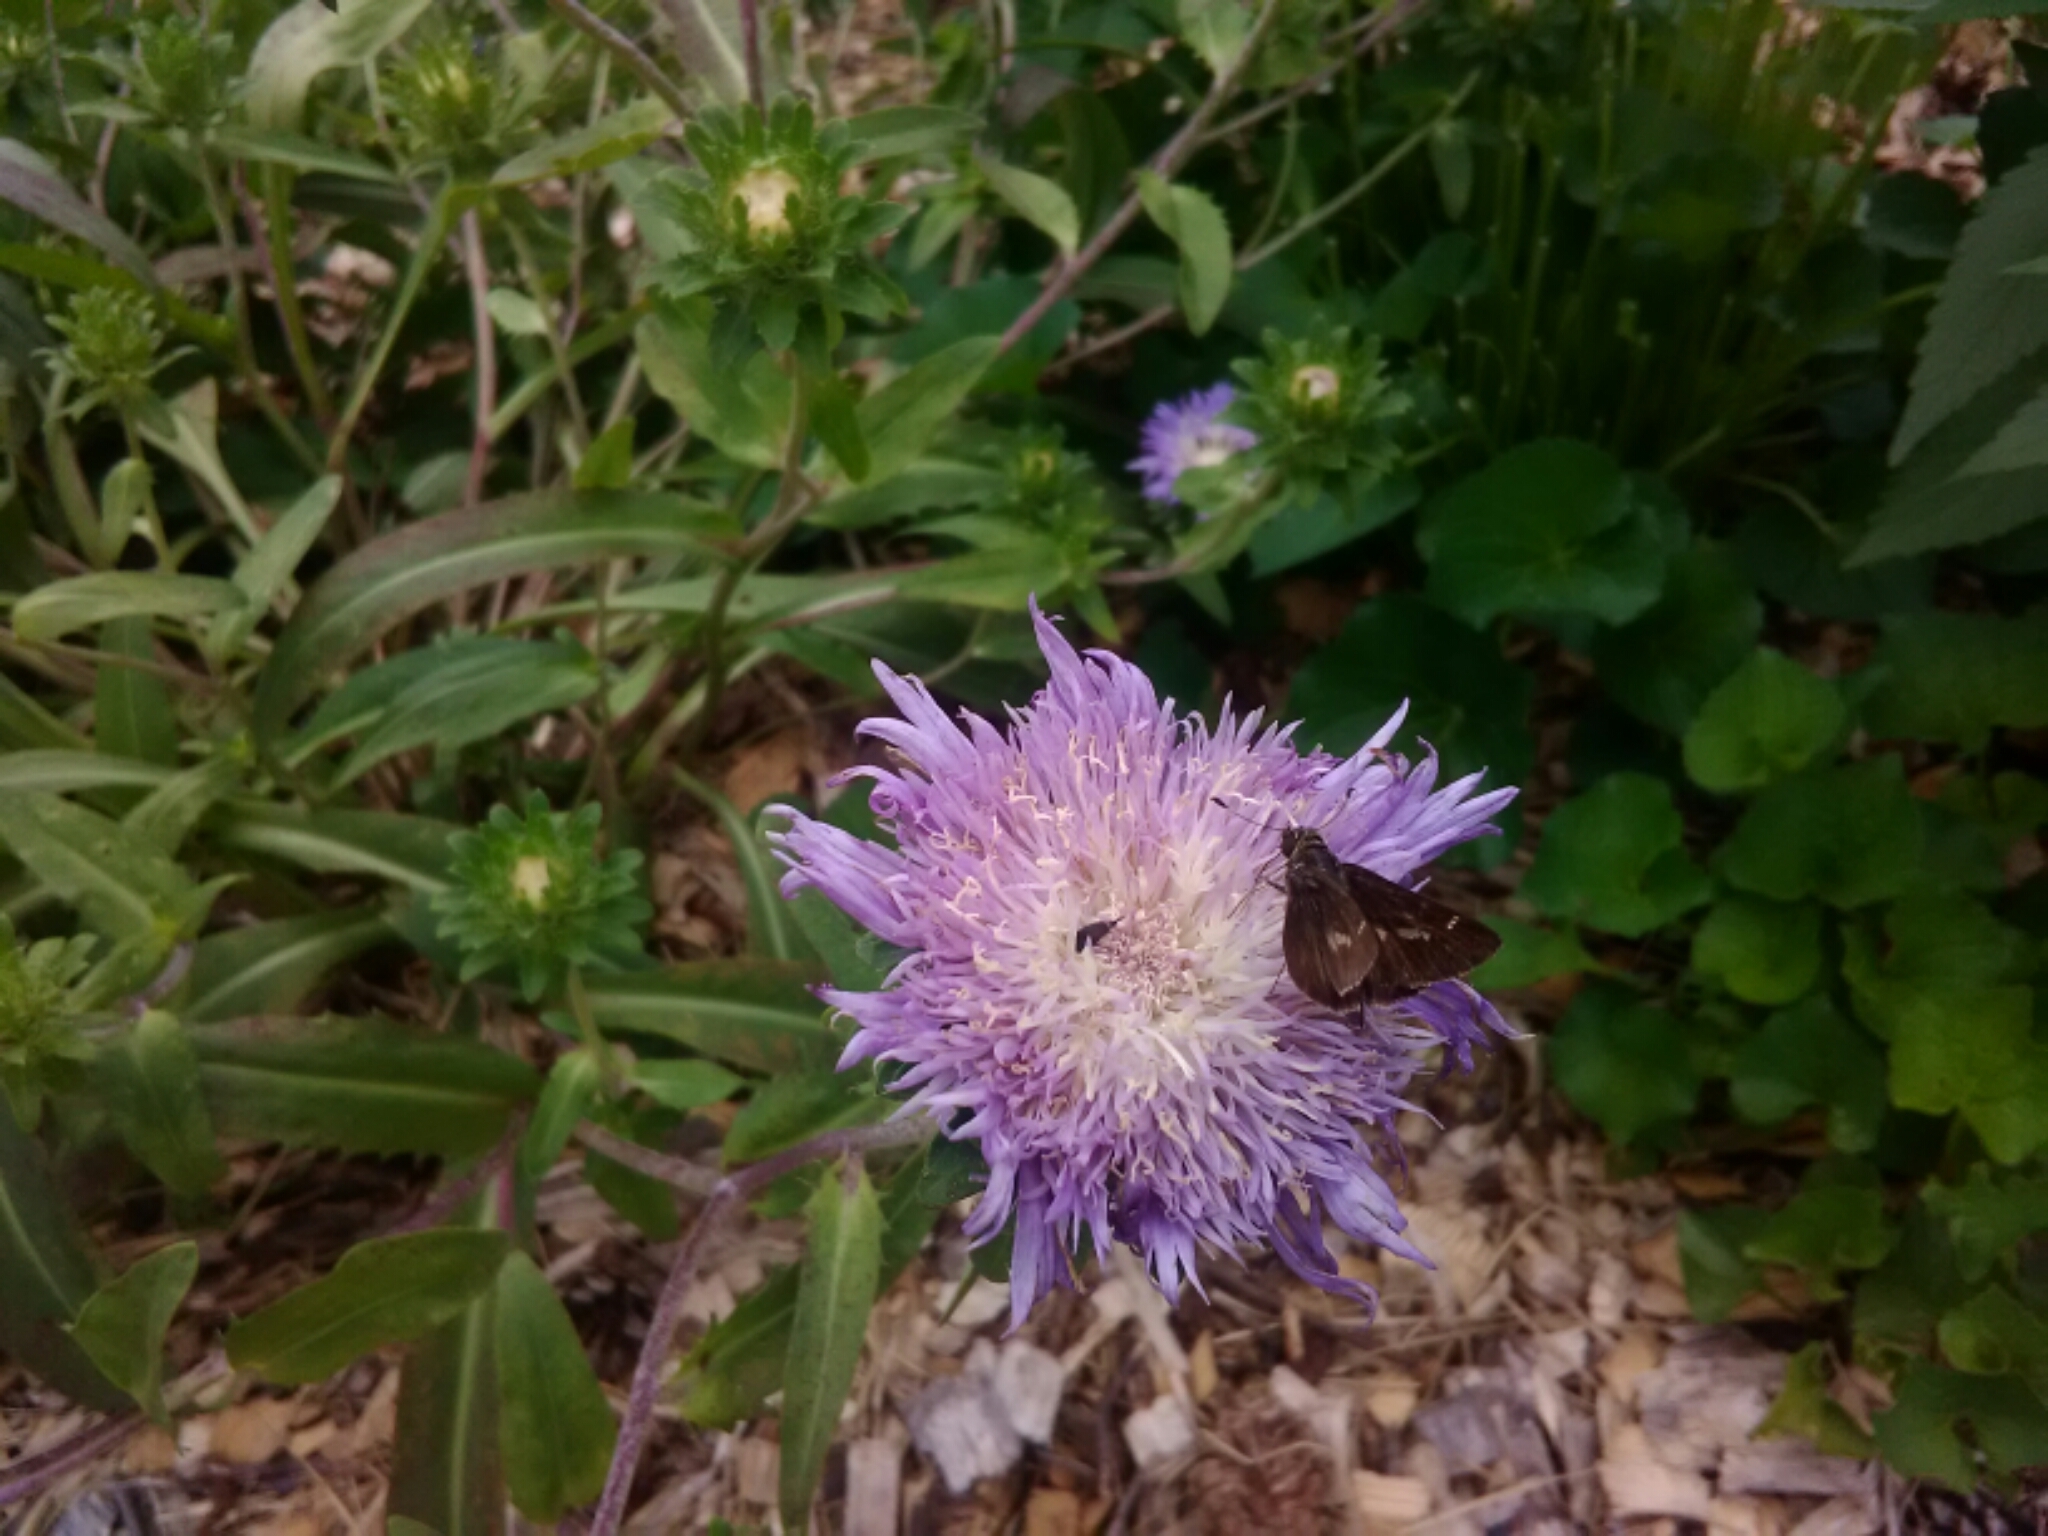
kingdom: Animalia
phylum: Arthropoda
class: Insecta
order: Lepidoptera
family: Hesperiidae
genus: Vernia
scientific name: Vernia verna
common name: Little glassywing
